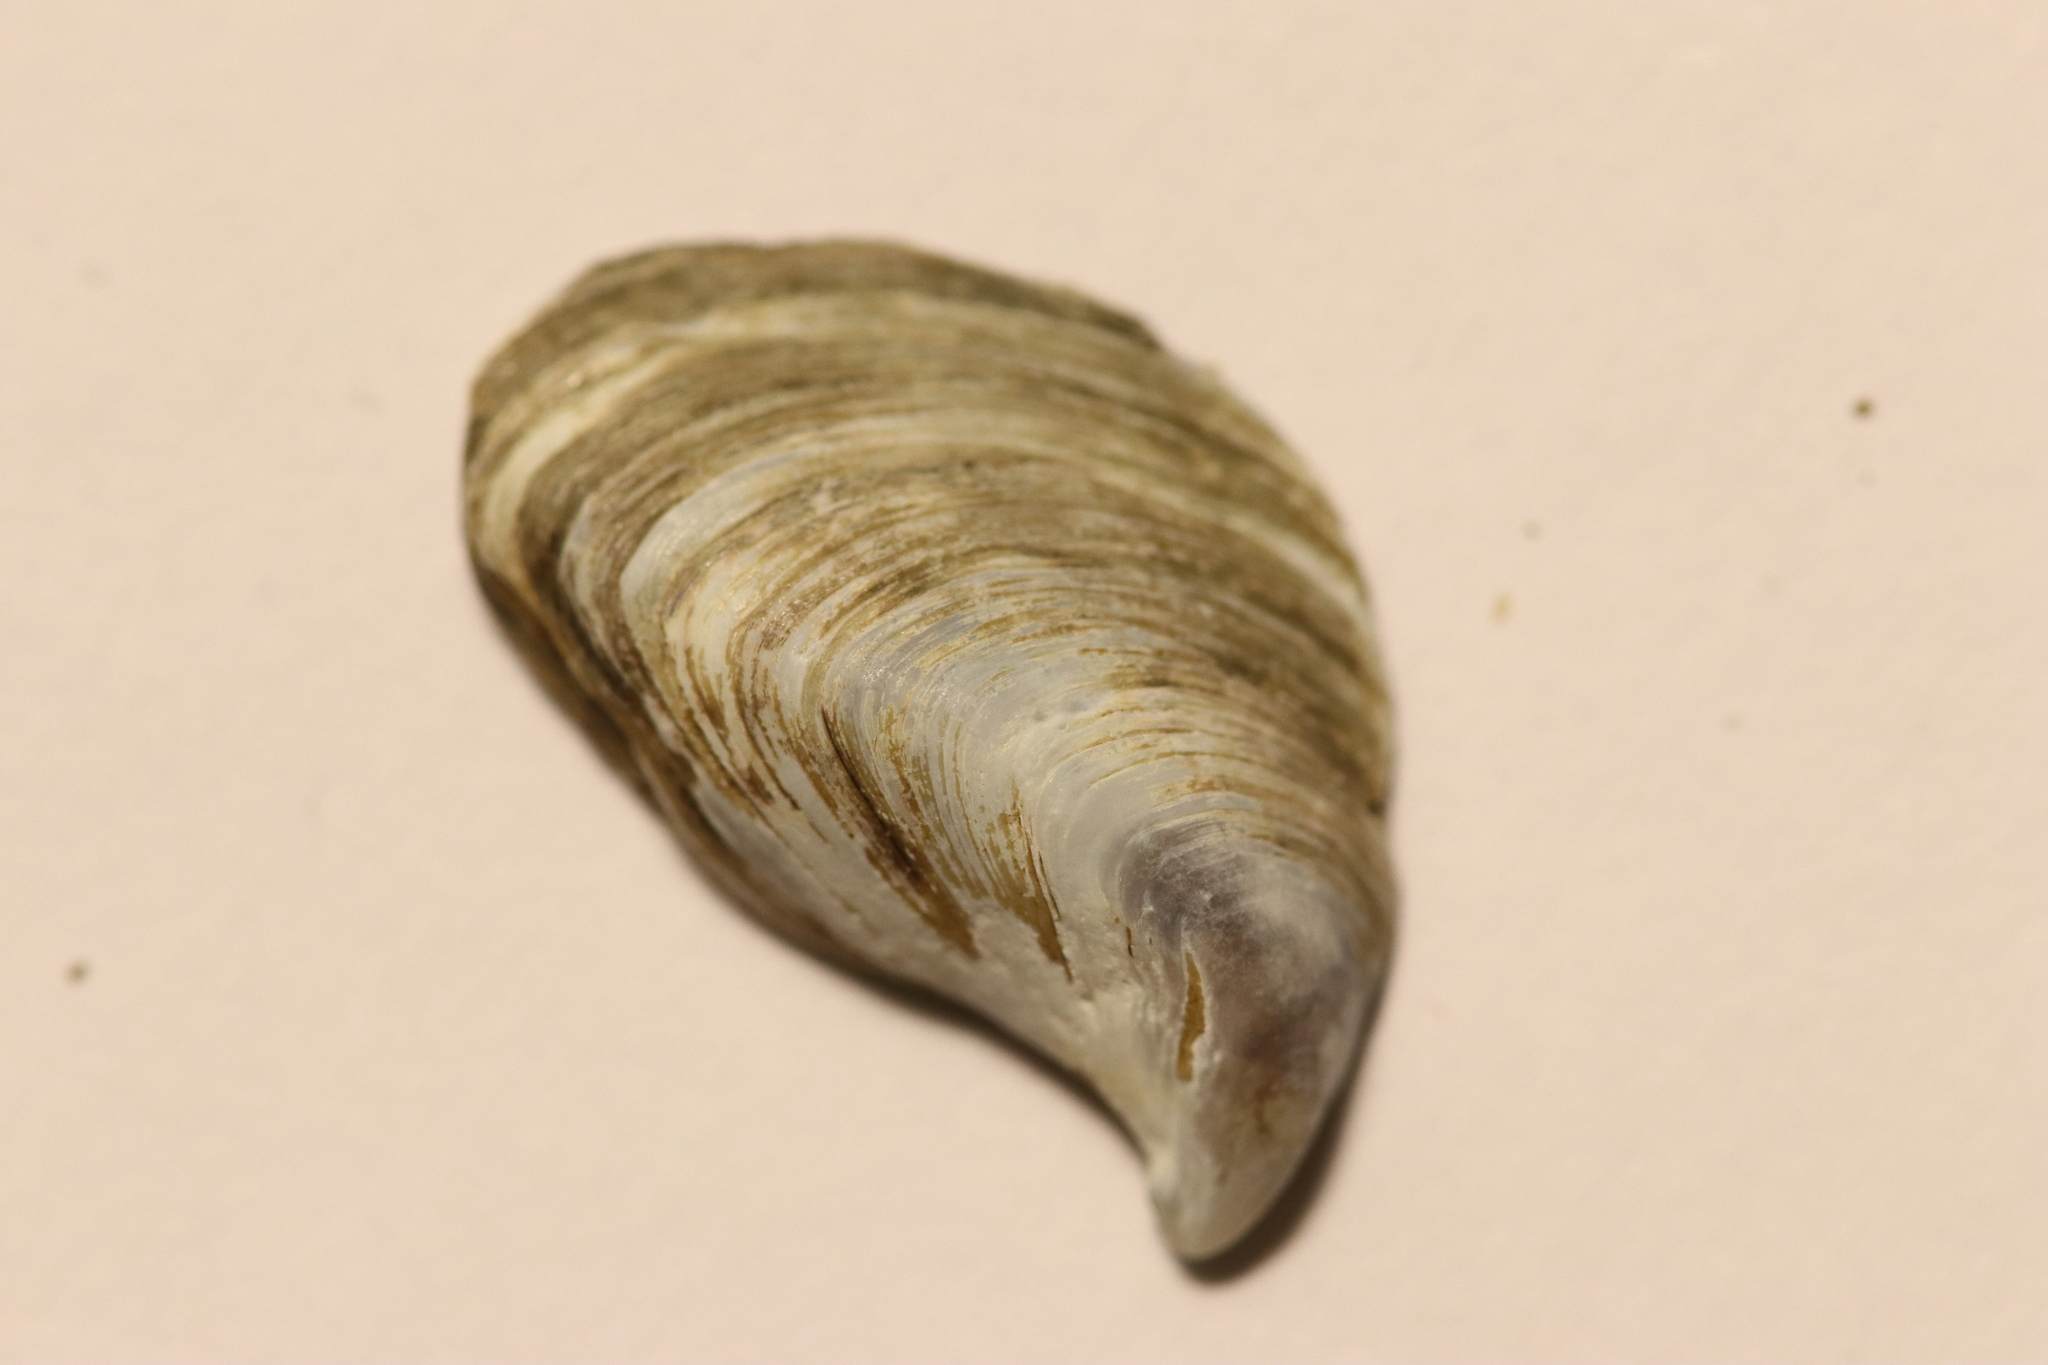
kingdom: Animalia
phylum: Mollusca
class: Bivalvia
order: Myida
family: Dreissenidae
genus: Dreissena
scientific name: Dreissena bugensis
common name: Quagga mussel
